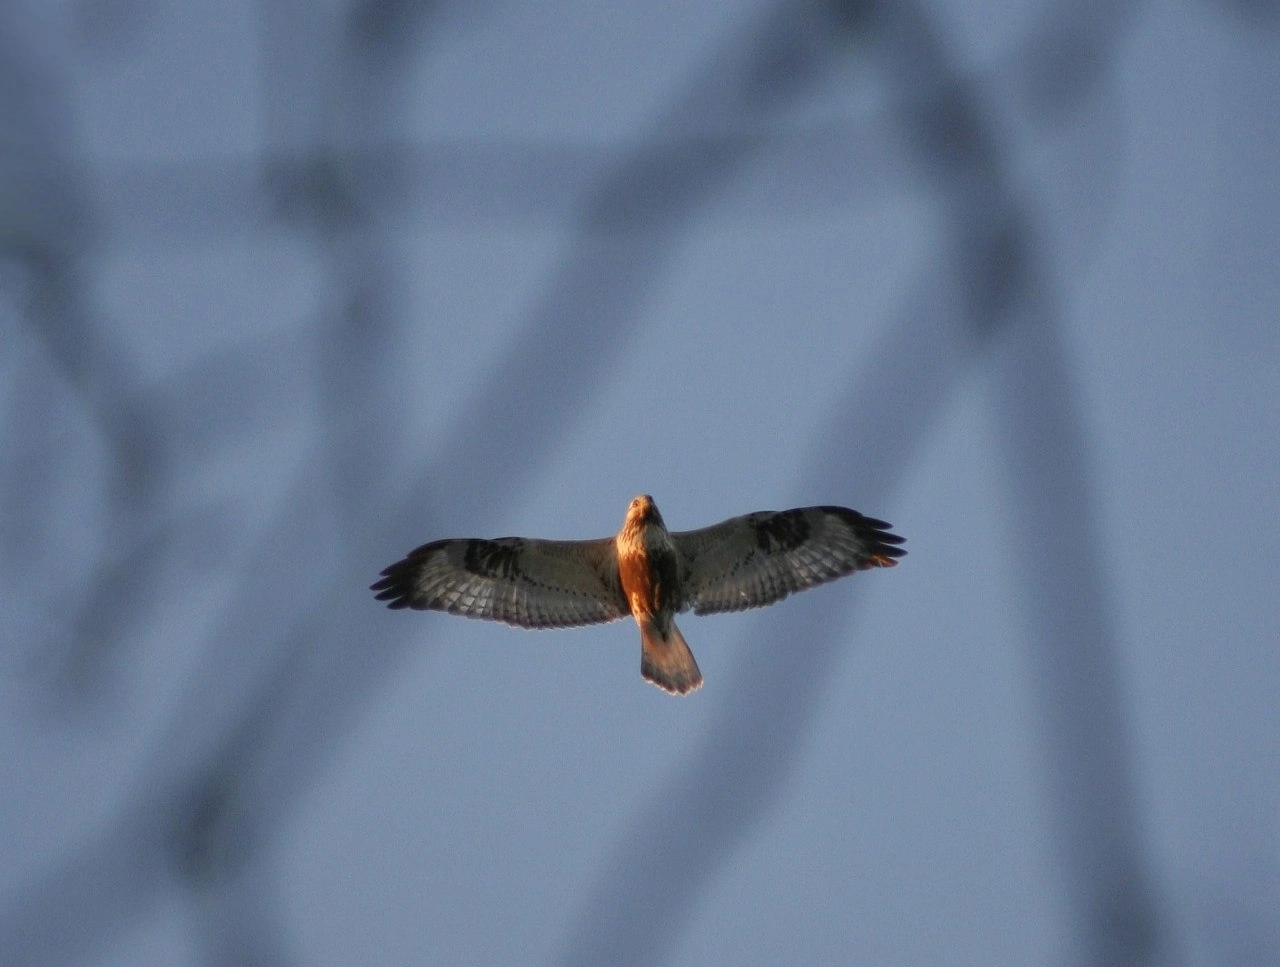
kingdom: Animalia
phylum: Chordata
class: Aves
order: Accipitriformes
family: Accipitridae
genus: Buteo
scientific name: Buteo lagopus
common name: Rough-legged buzzard
